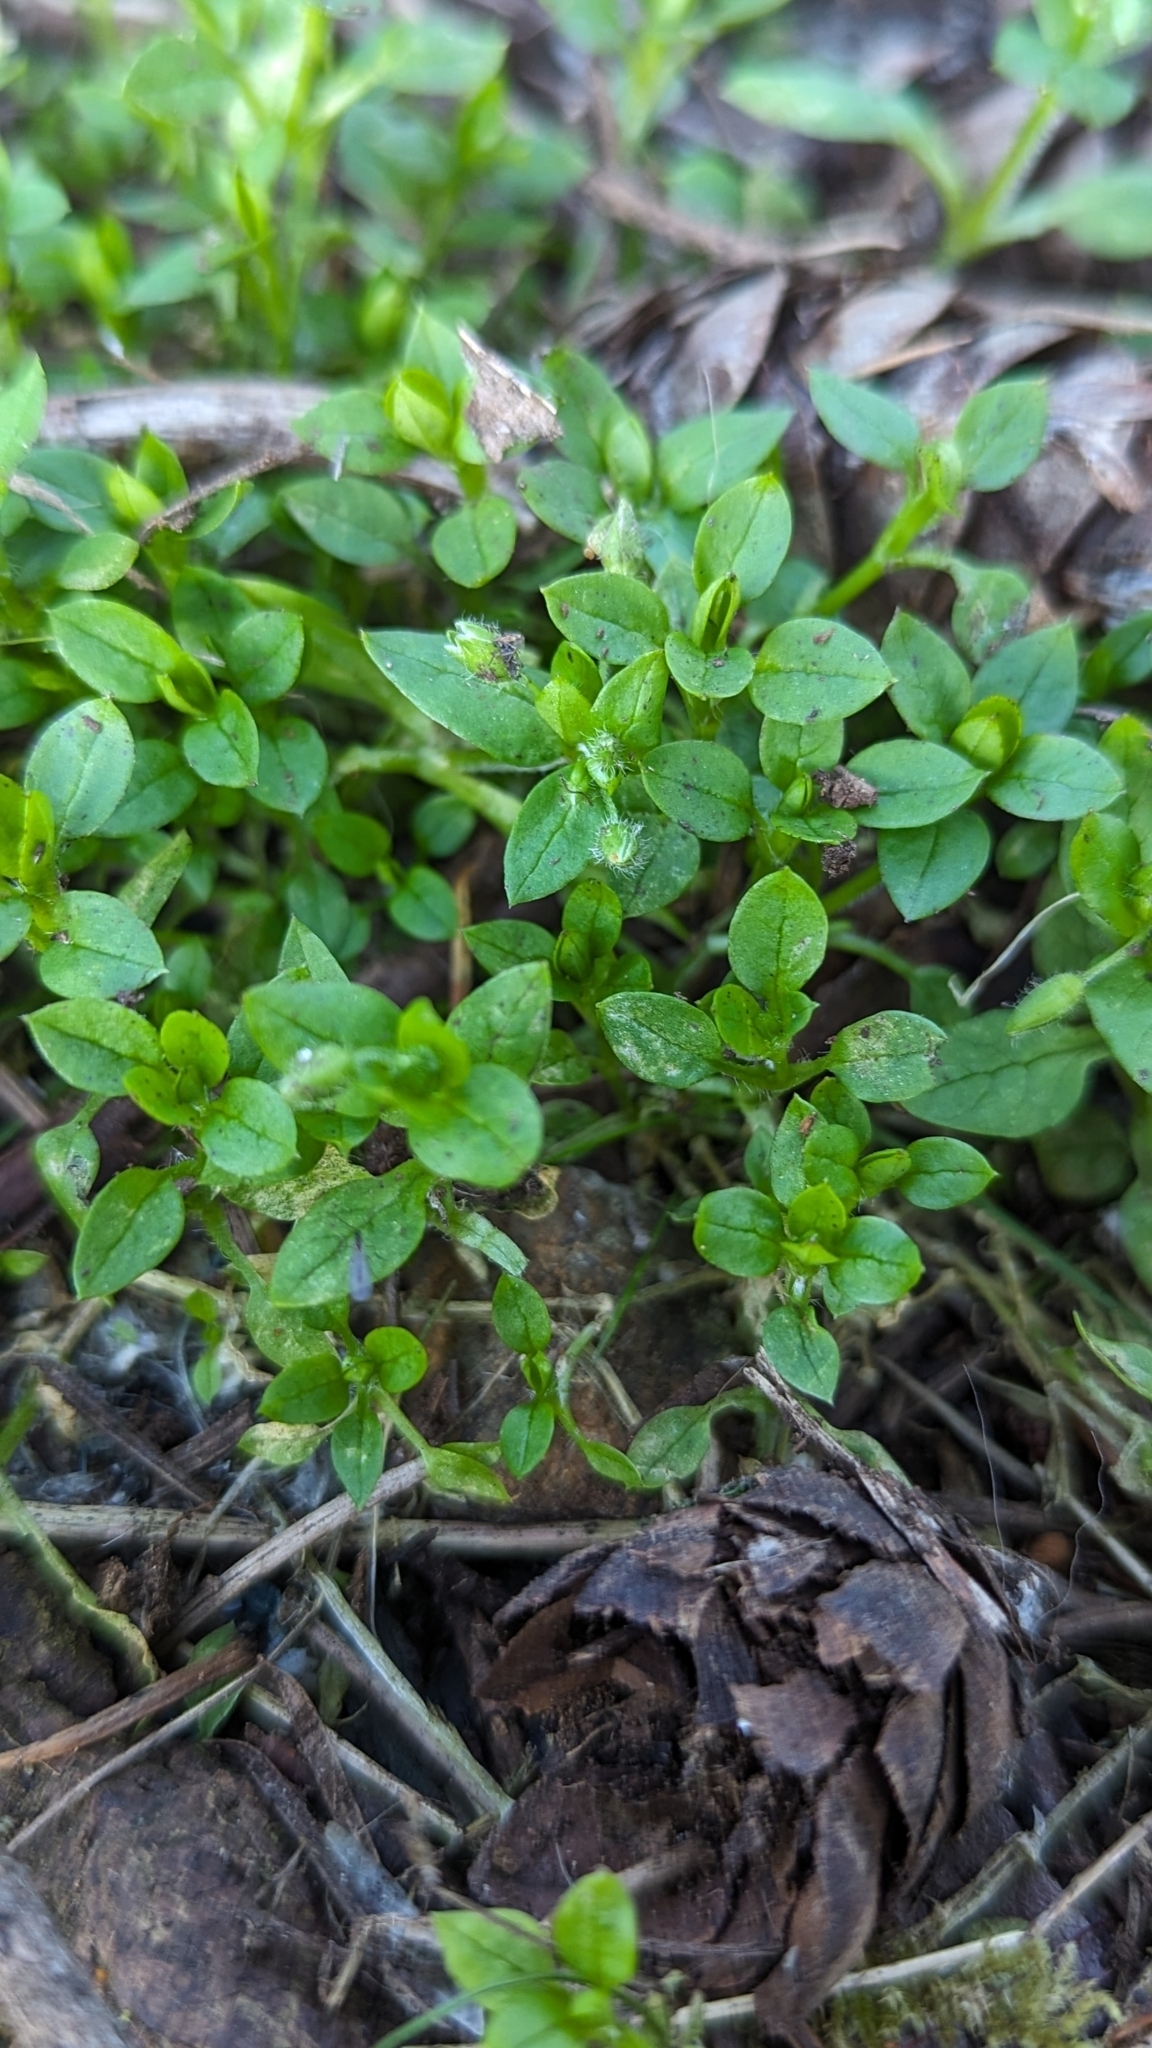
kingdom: Plantae
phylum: Tracheophyta
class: Magnoliopsida
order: Caryophyllales
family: Caryophyllaceae
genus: Stellaria
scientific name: Stellaria media
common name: Common chickweed
